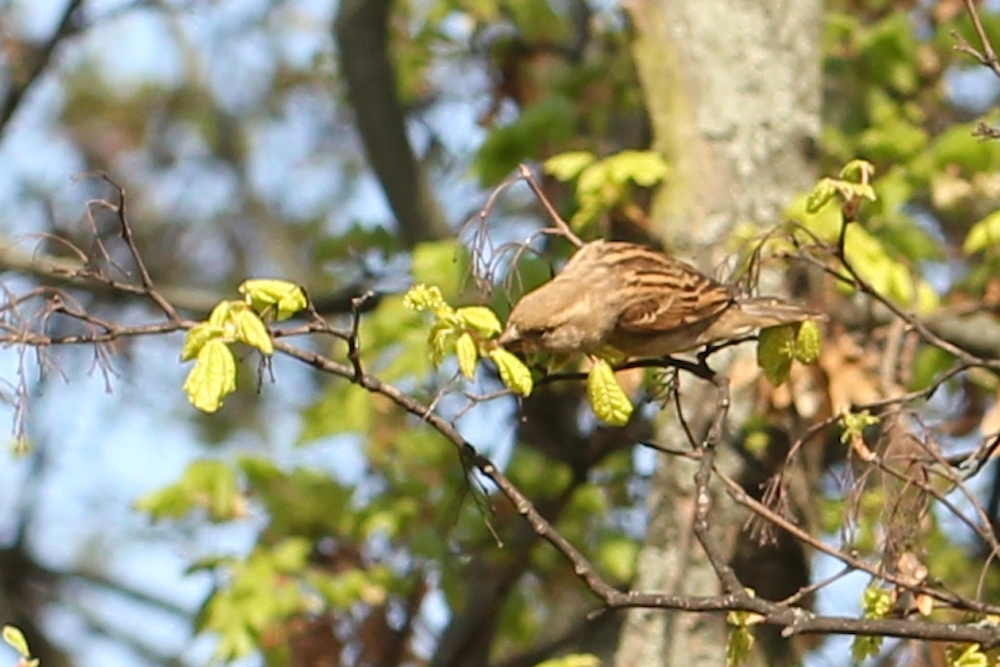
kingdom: Animalia
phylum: Chordata
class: Aves
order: Passeriformes
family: Passeridae
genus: Passer
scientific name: Passer domesticus
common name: House sparrow
